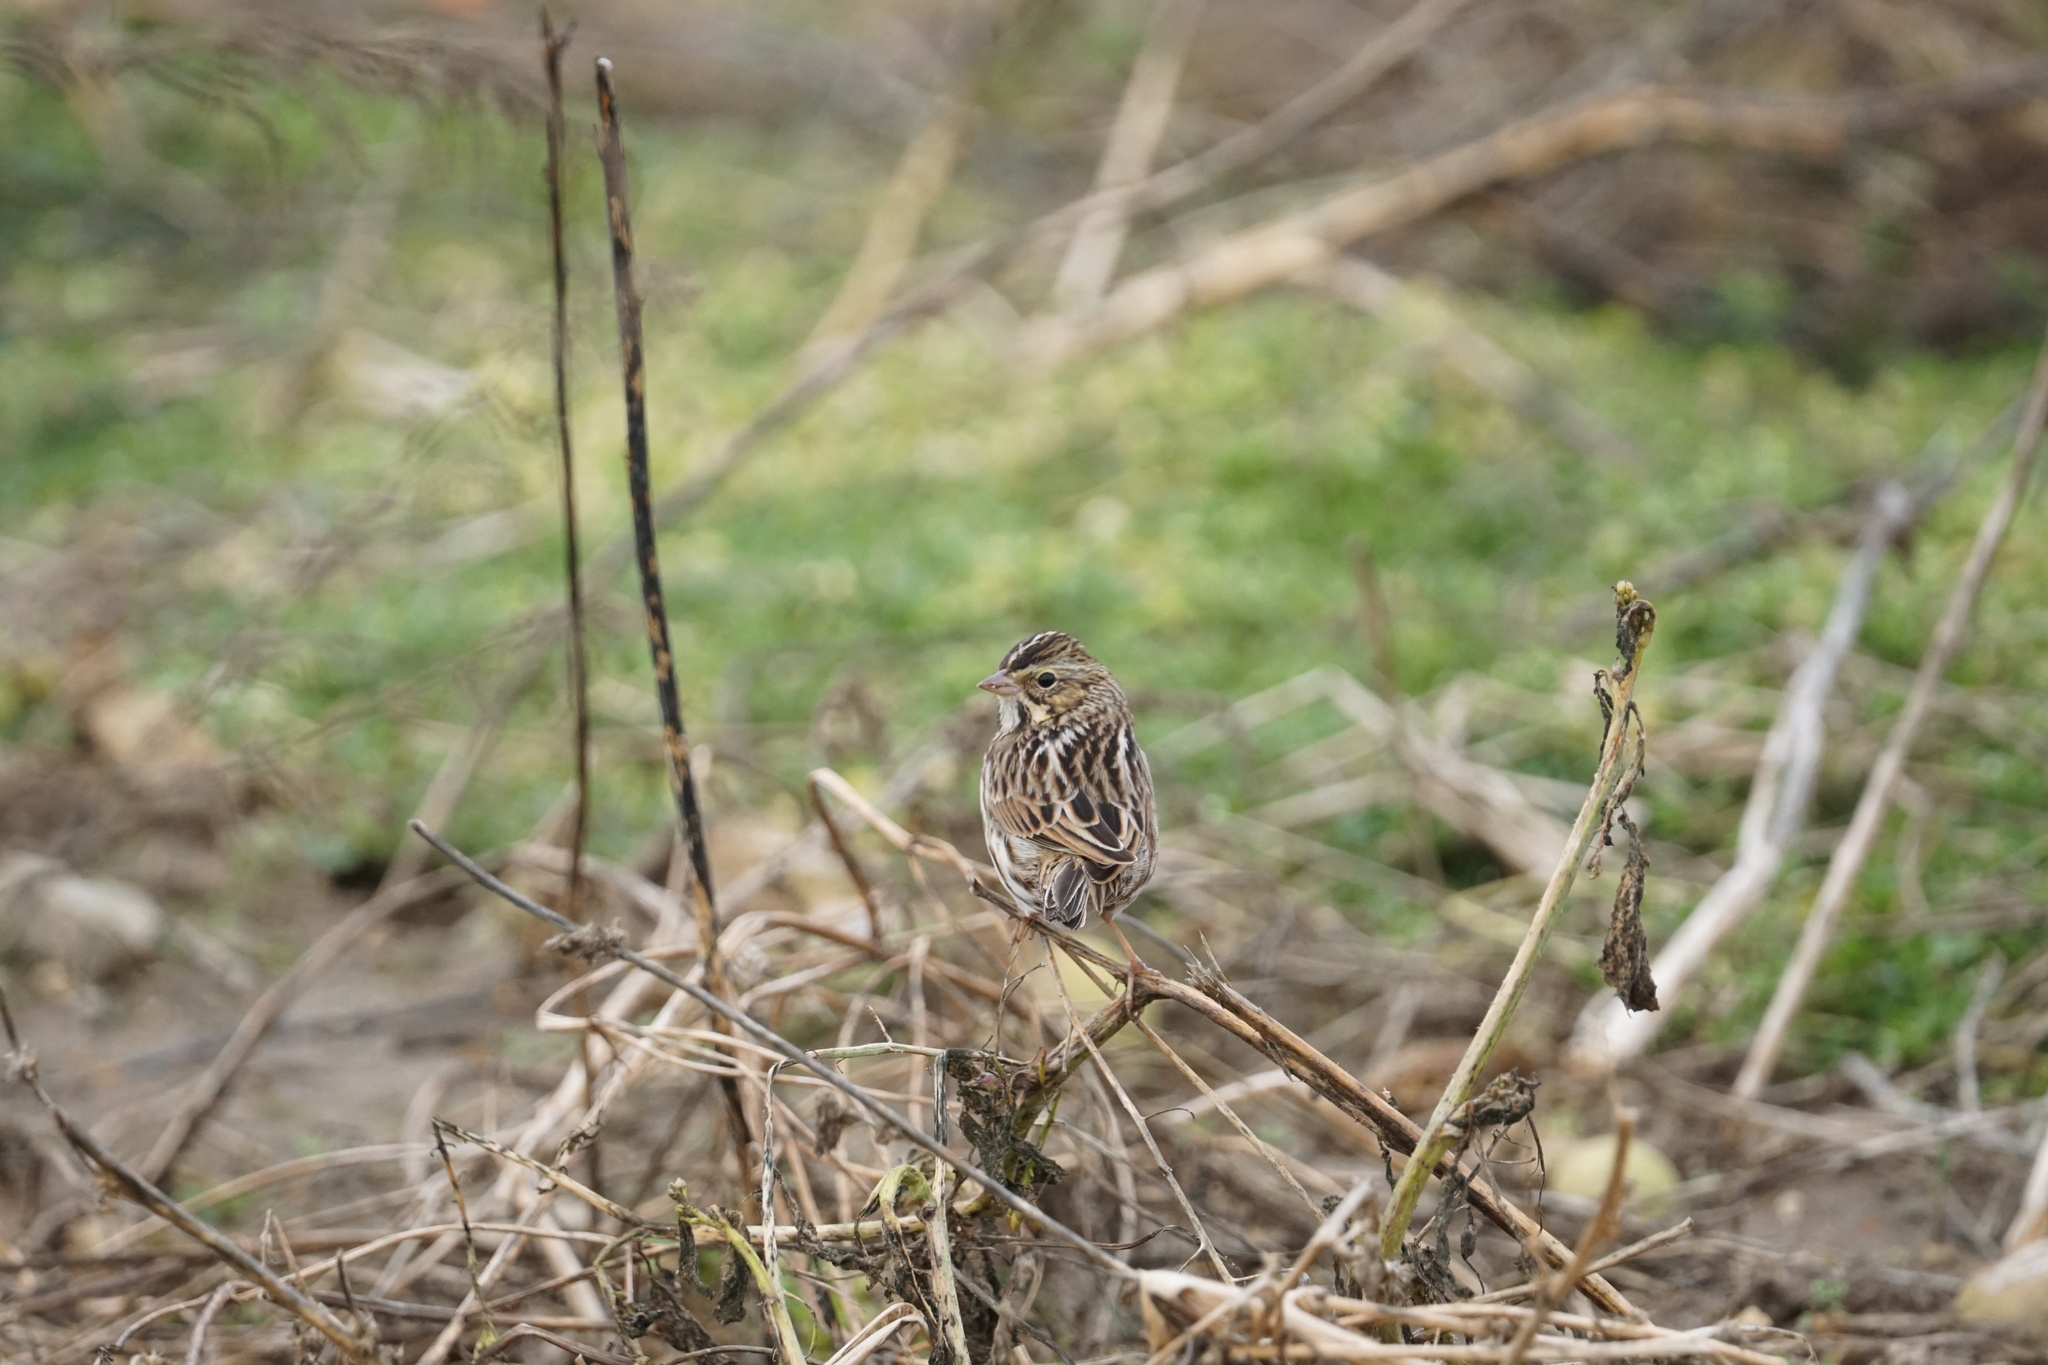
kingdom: Animalia
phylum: Chordata
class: Aves
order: Passeriformes
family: Passerellidae
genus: Passerculus
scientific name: Passerculus sandwichensis
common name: Savannah sparrow
